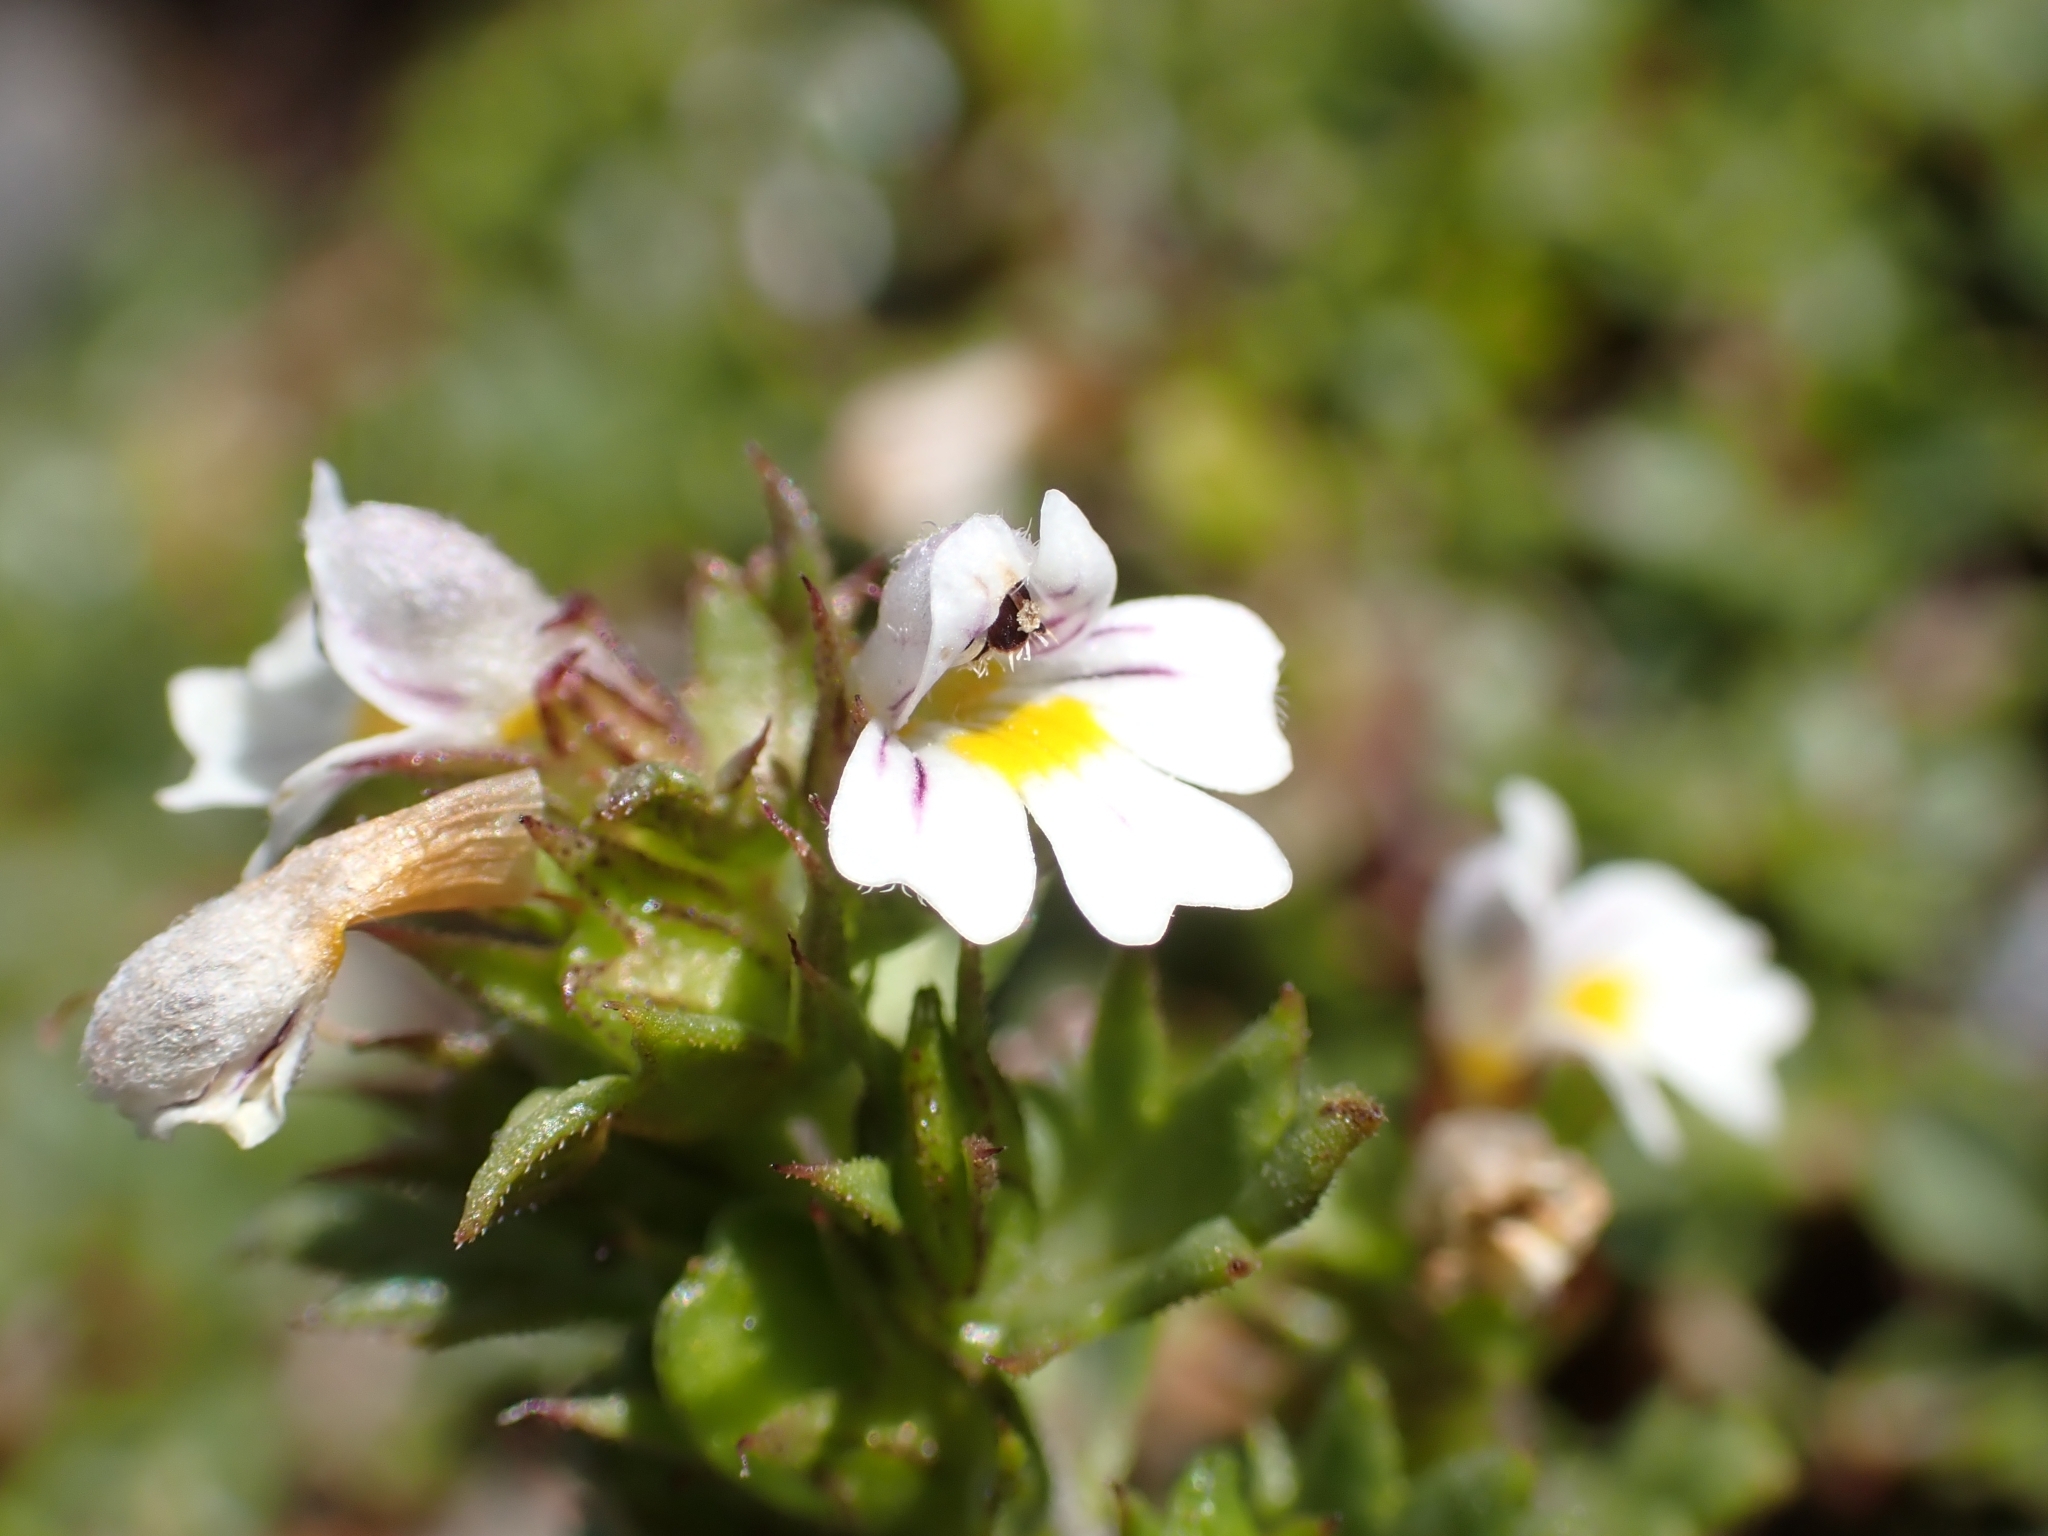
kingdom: Plantae
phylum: Tracheophyta
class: Magnoliopsida
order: Lamiales
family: Orobanchaceae
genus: Euphrasia
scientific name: Euphrasia minima
